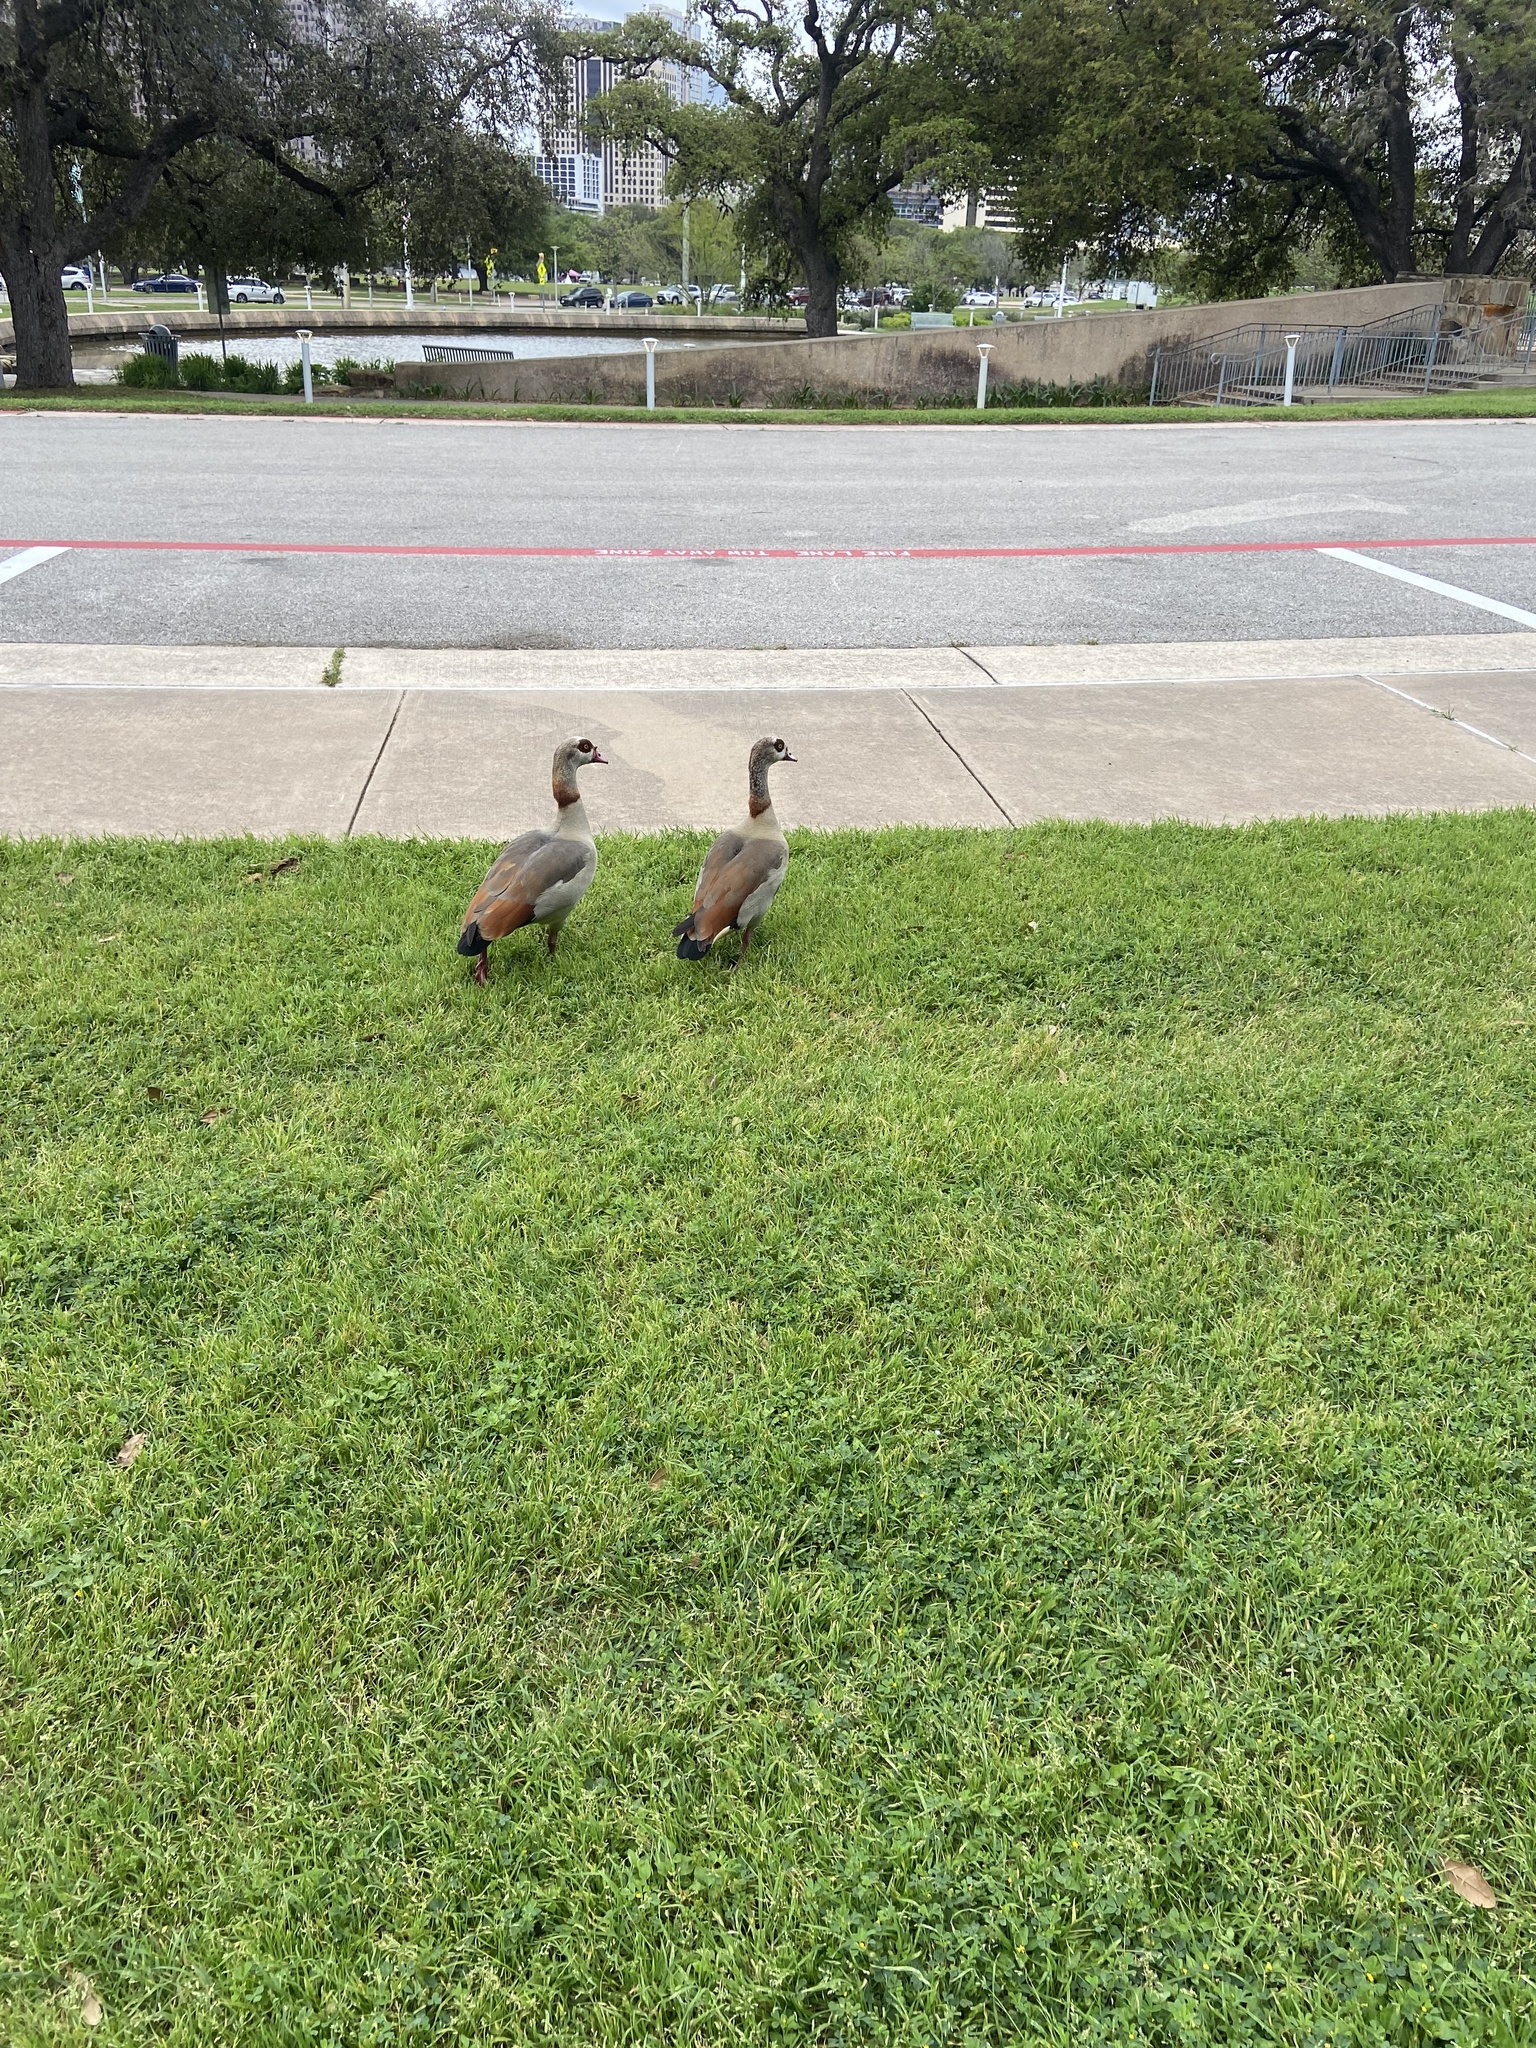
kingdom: Animalia
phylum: Chordata
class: Aves
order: Anseriformes
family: Anatidae
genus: Alopochen
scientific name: Alopochen aegyptiaca
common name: Egyptian goose
